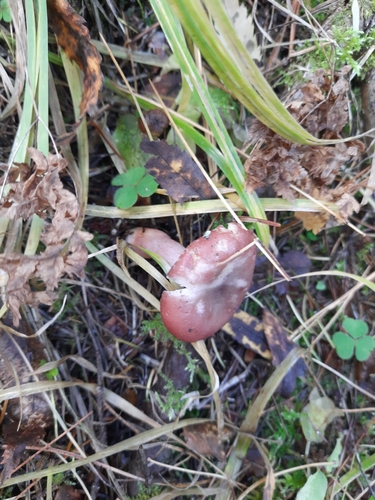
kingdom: Fungi
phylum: Basidiomycota
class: Agaricomycetes
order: Russulales
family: Russulaceae
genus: Russula
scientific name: Russula
